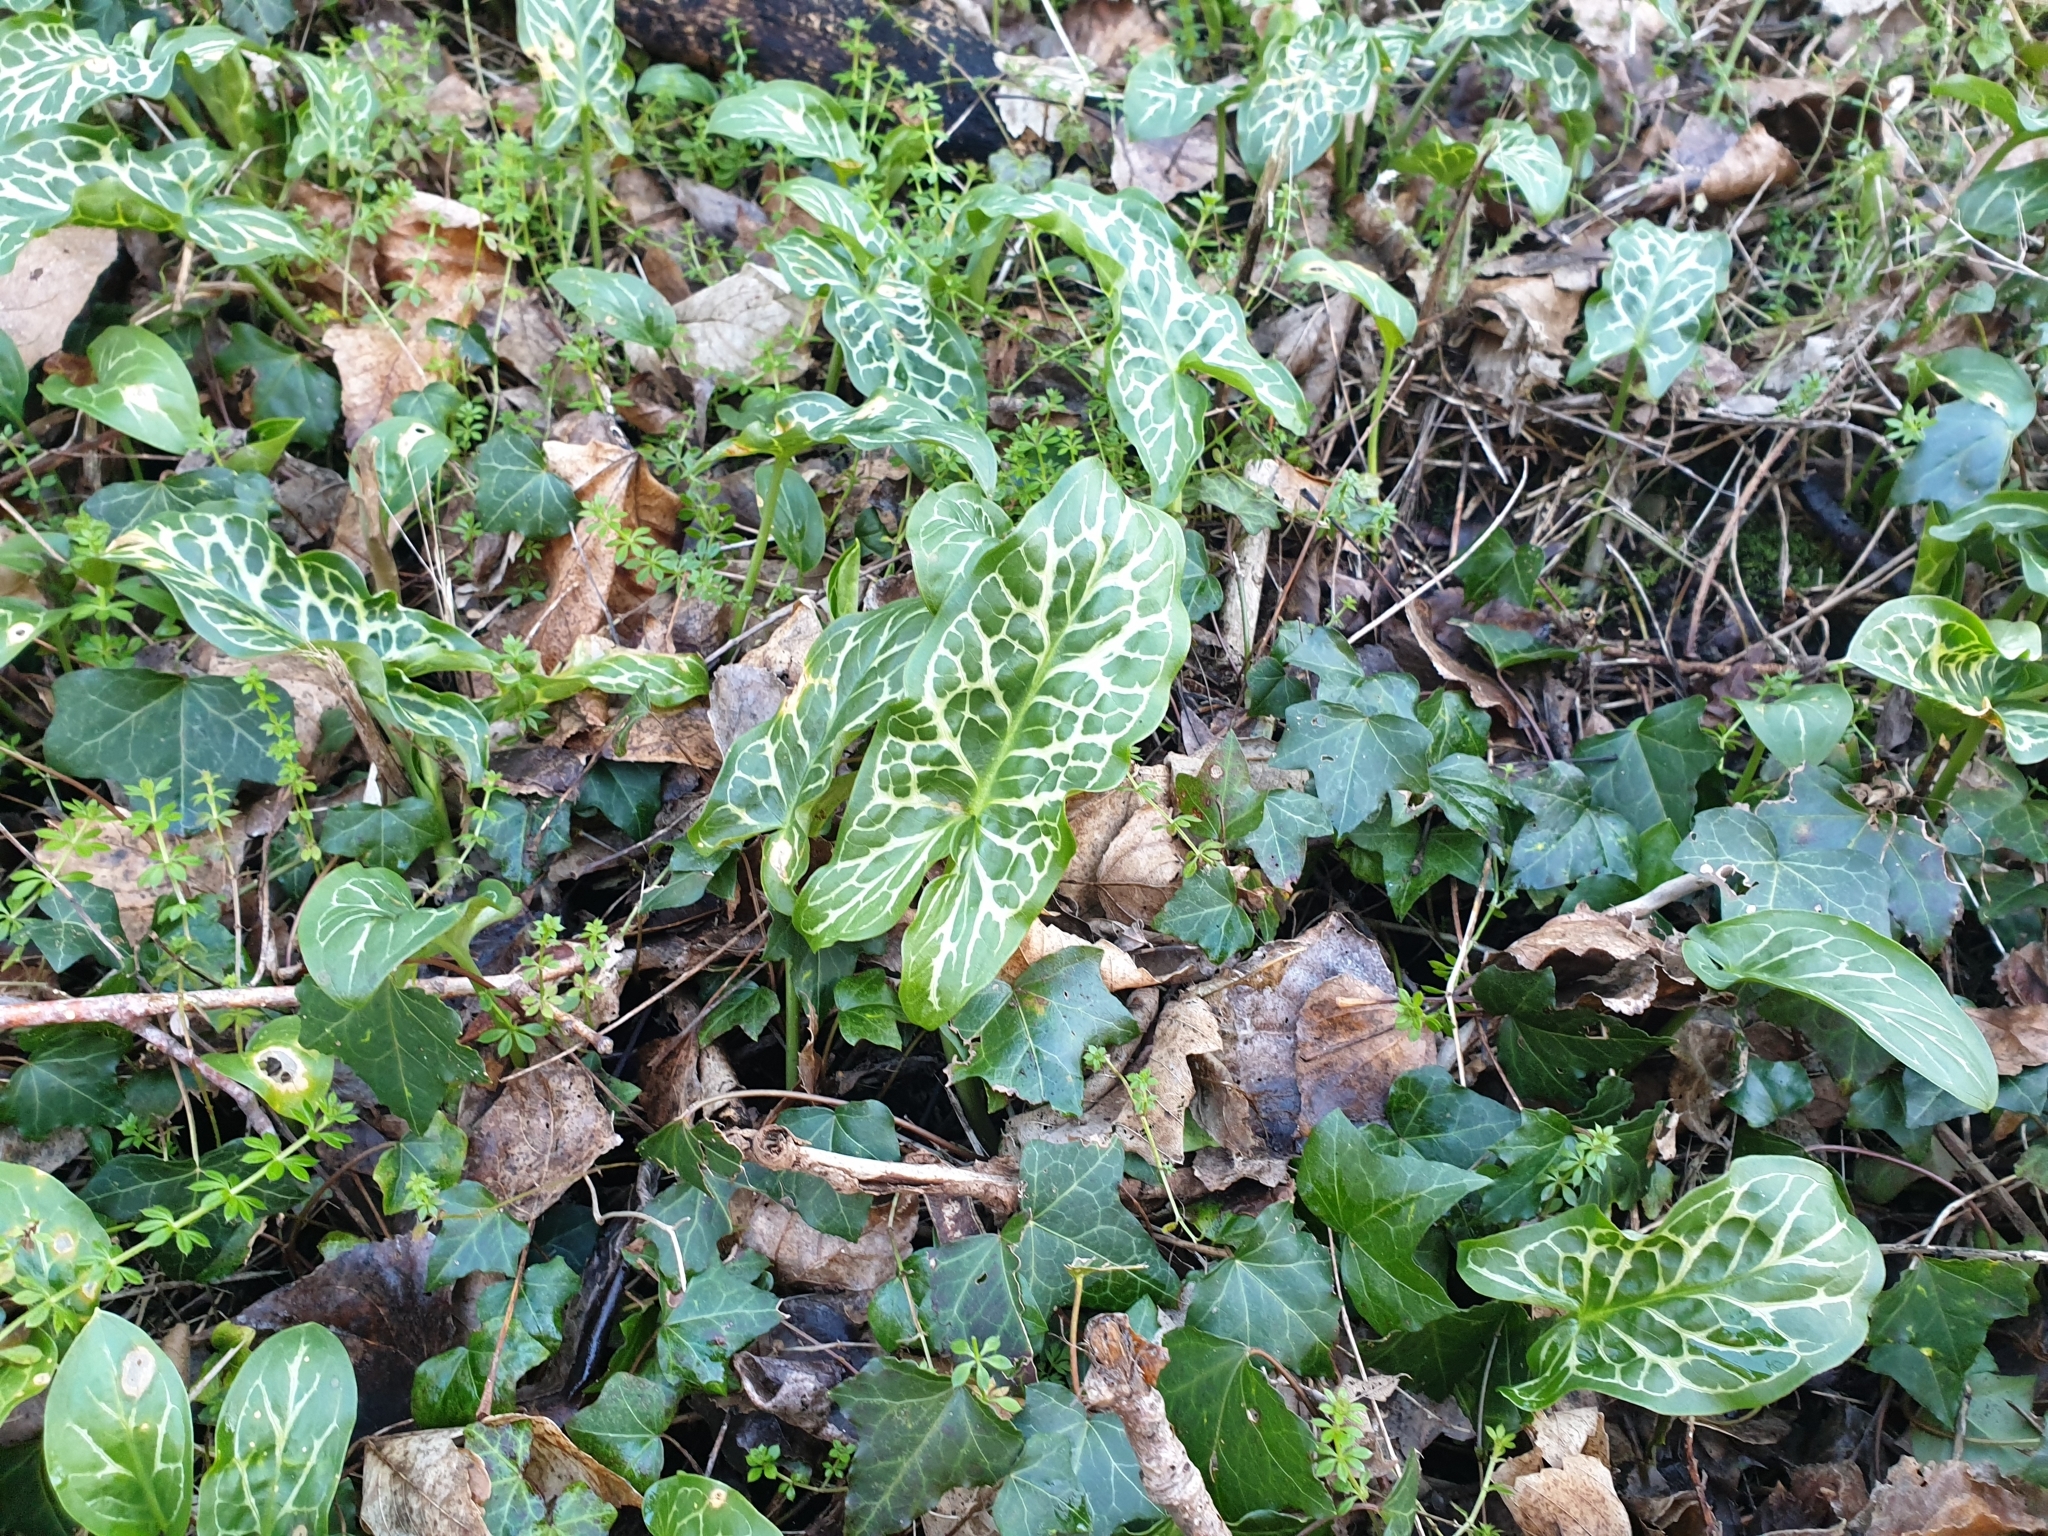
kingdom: Plantae
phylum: Tracheophyta
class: Liliopsida
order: Alismatales
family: Araceae
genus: Arum
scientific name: Arum italicum
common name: Italian lords-and-ladies
